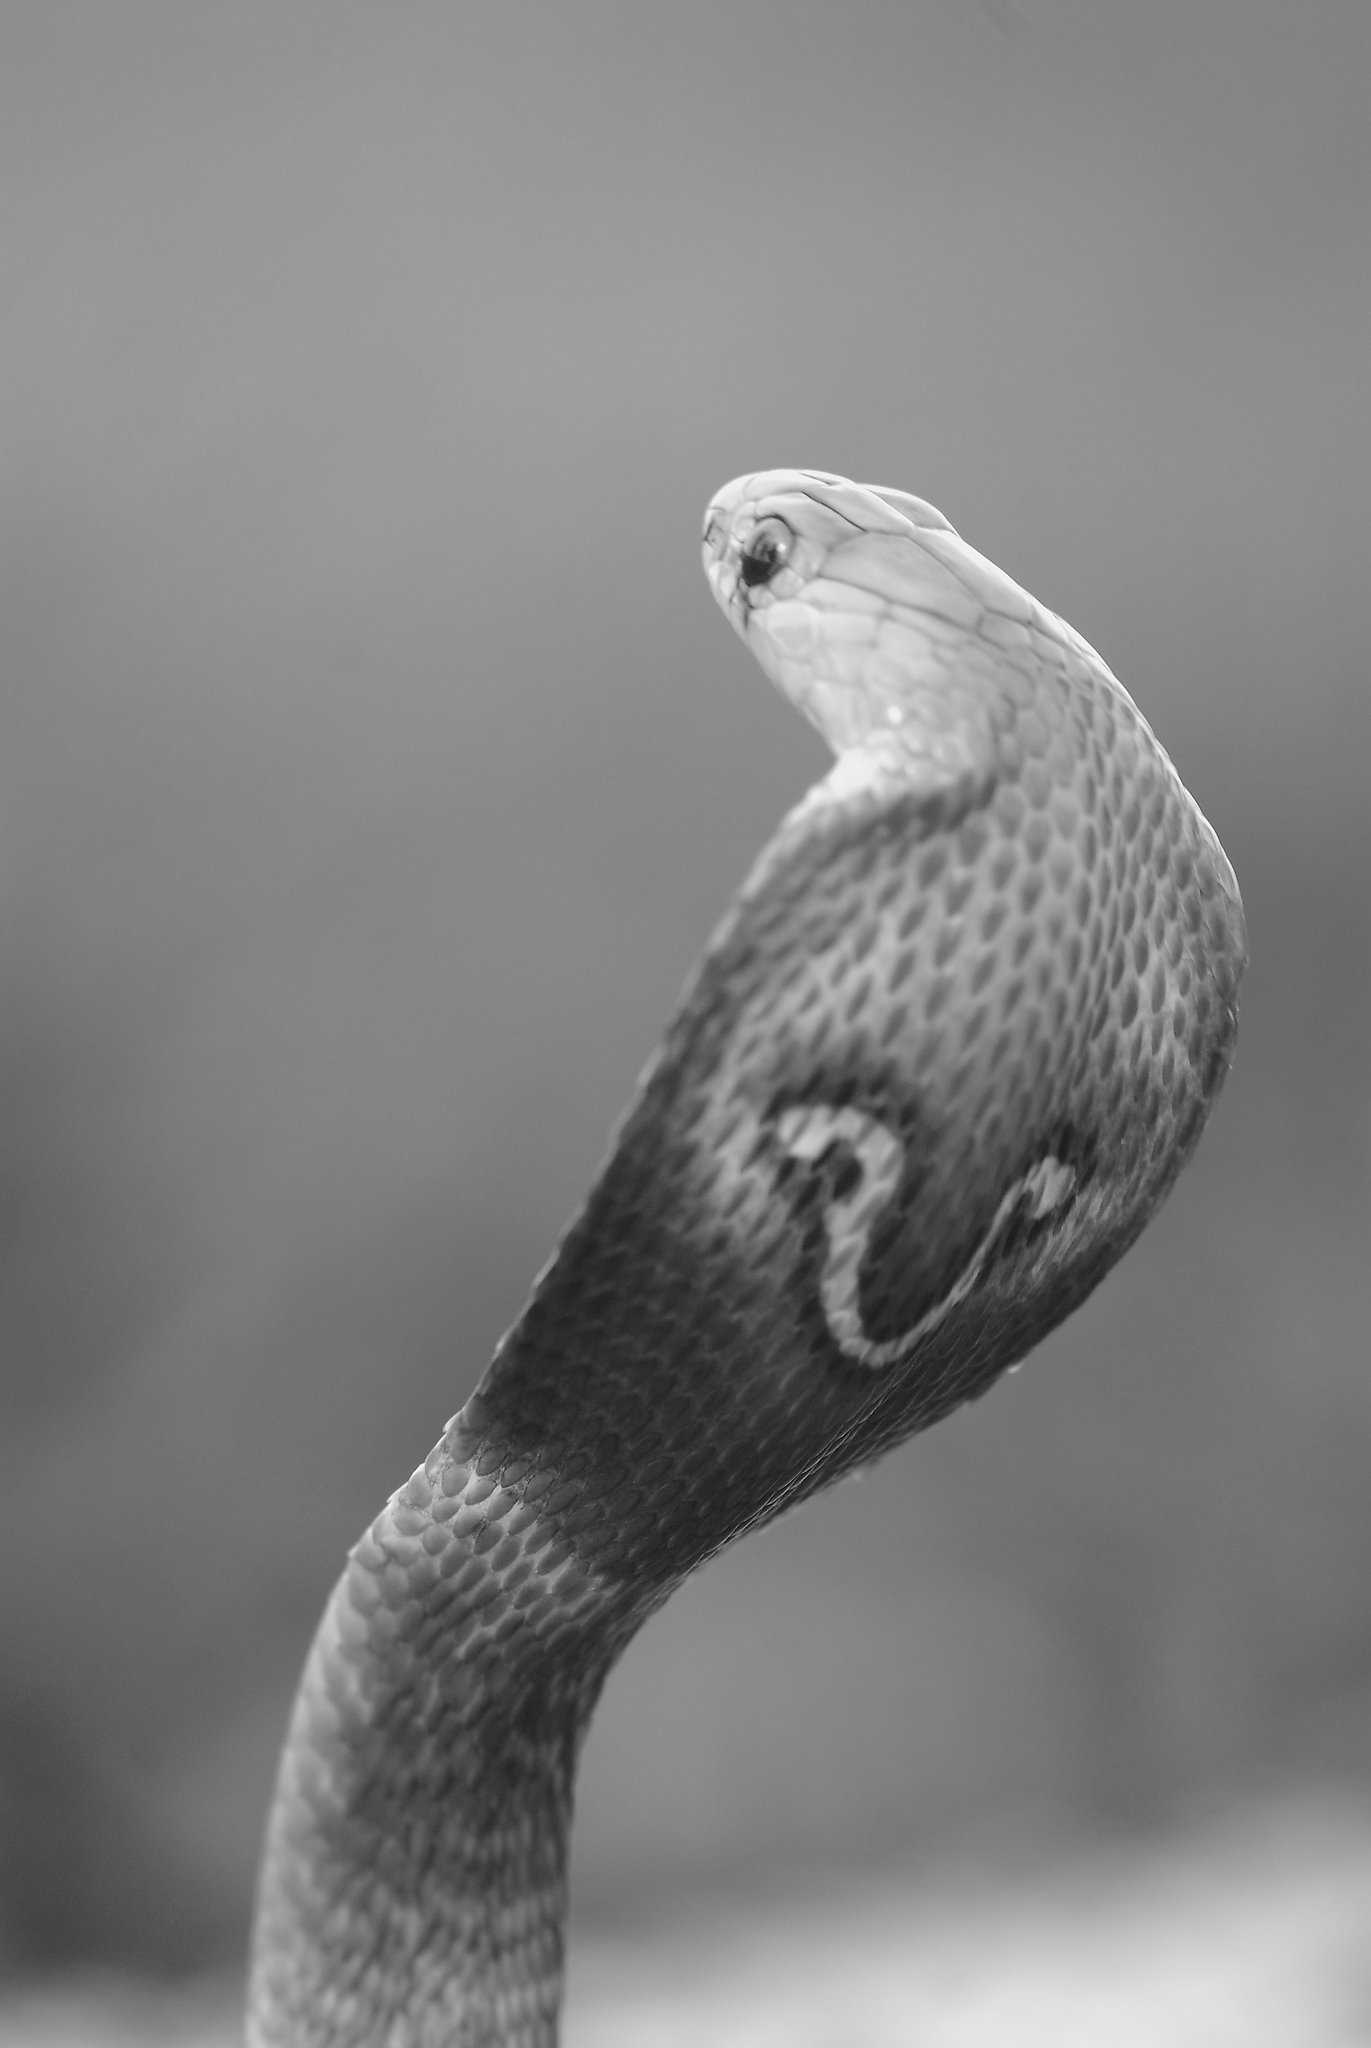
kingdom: Animalia
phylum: Chordata
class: Squamata
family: Elapidae
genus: Naja
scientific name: Naja naja
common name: Indian cobra
